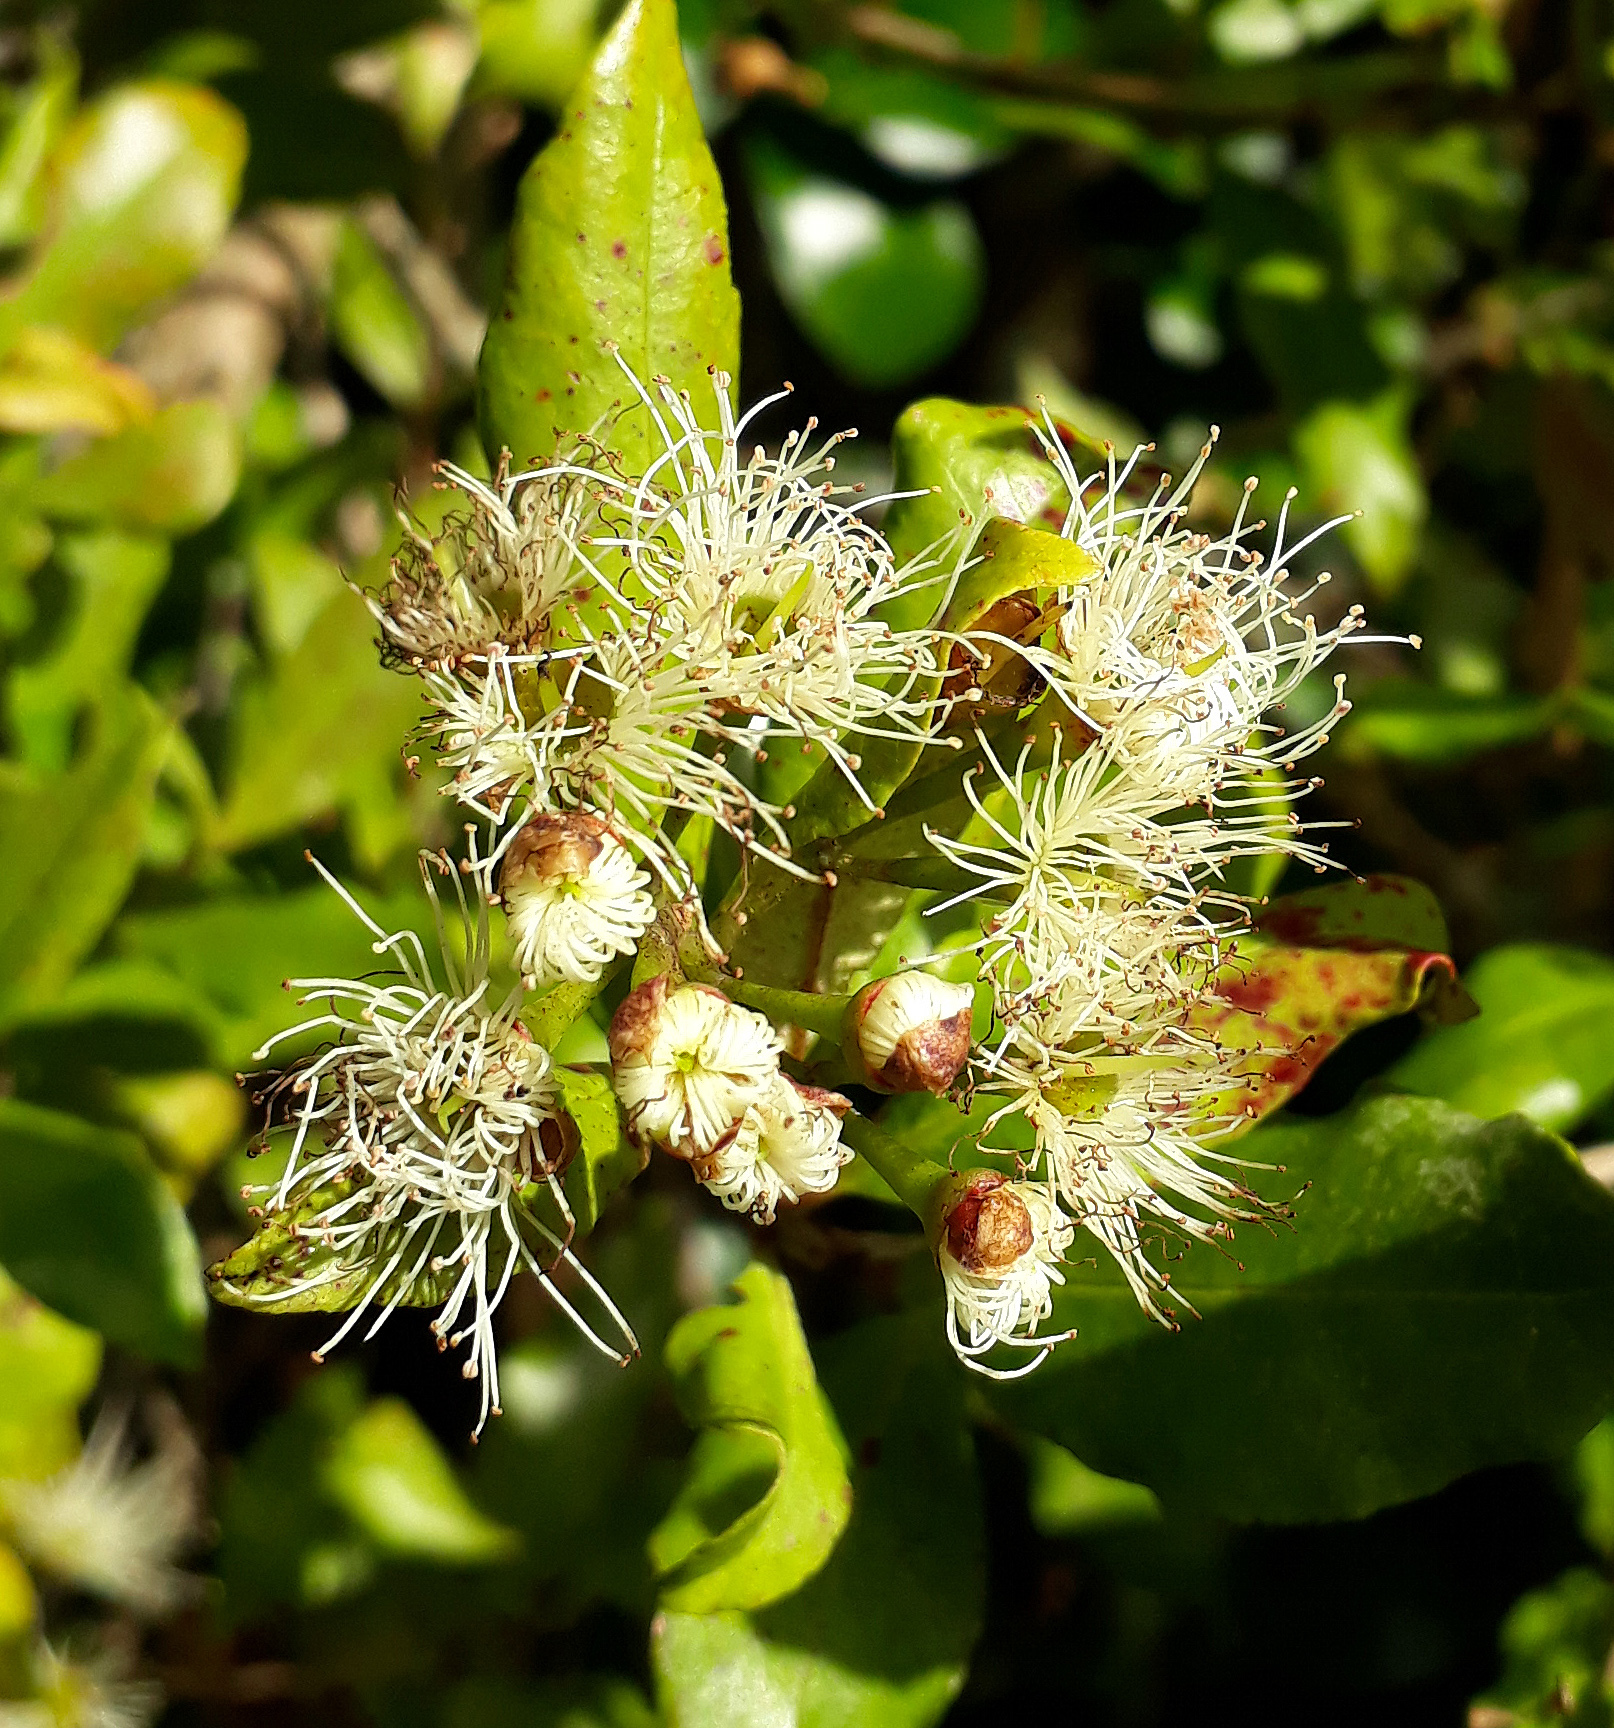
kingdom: Fungi
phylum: Basidiomycota
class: Pucciniomycetes
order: Pucciniales
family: Sphaerophragmiaceae
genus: Austropuccinia
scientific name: Austropuccinia psidii
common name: Myrtle rust
